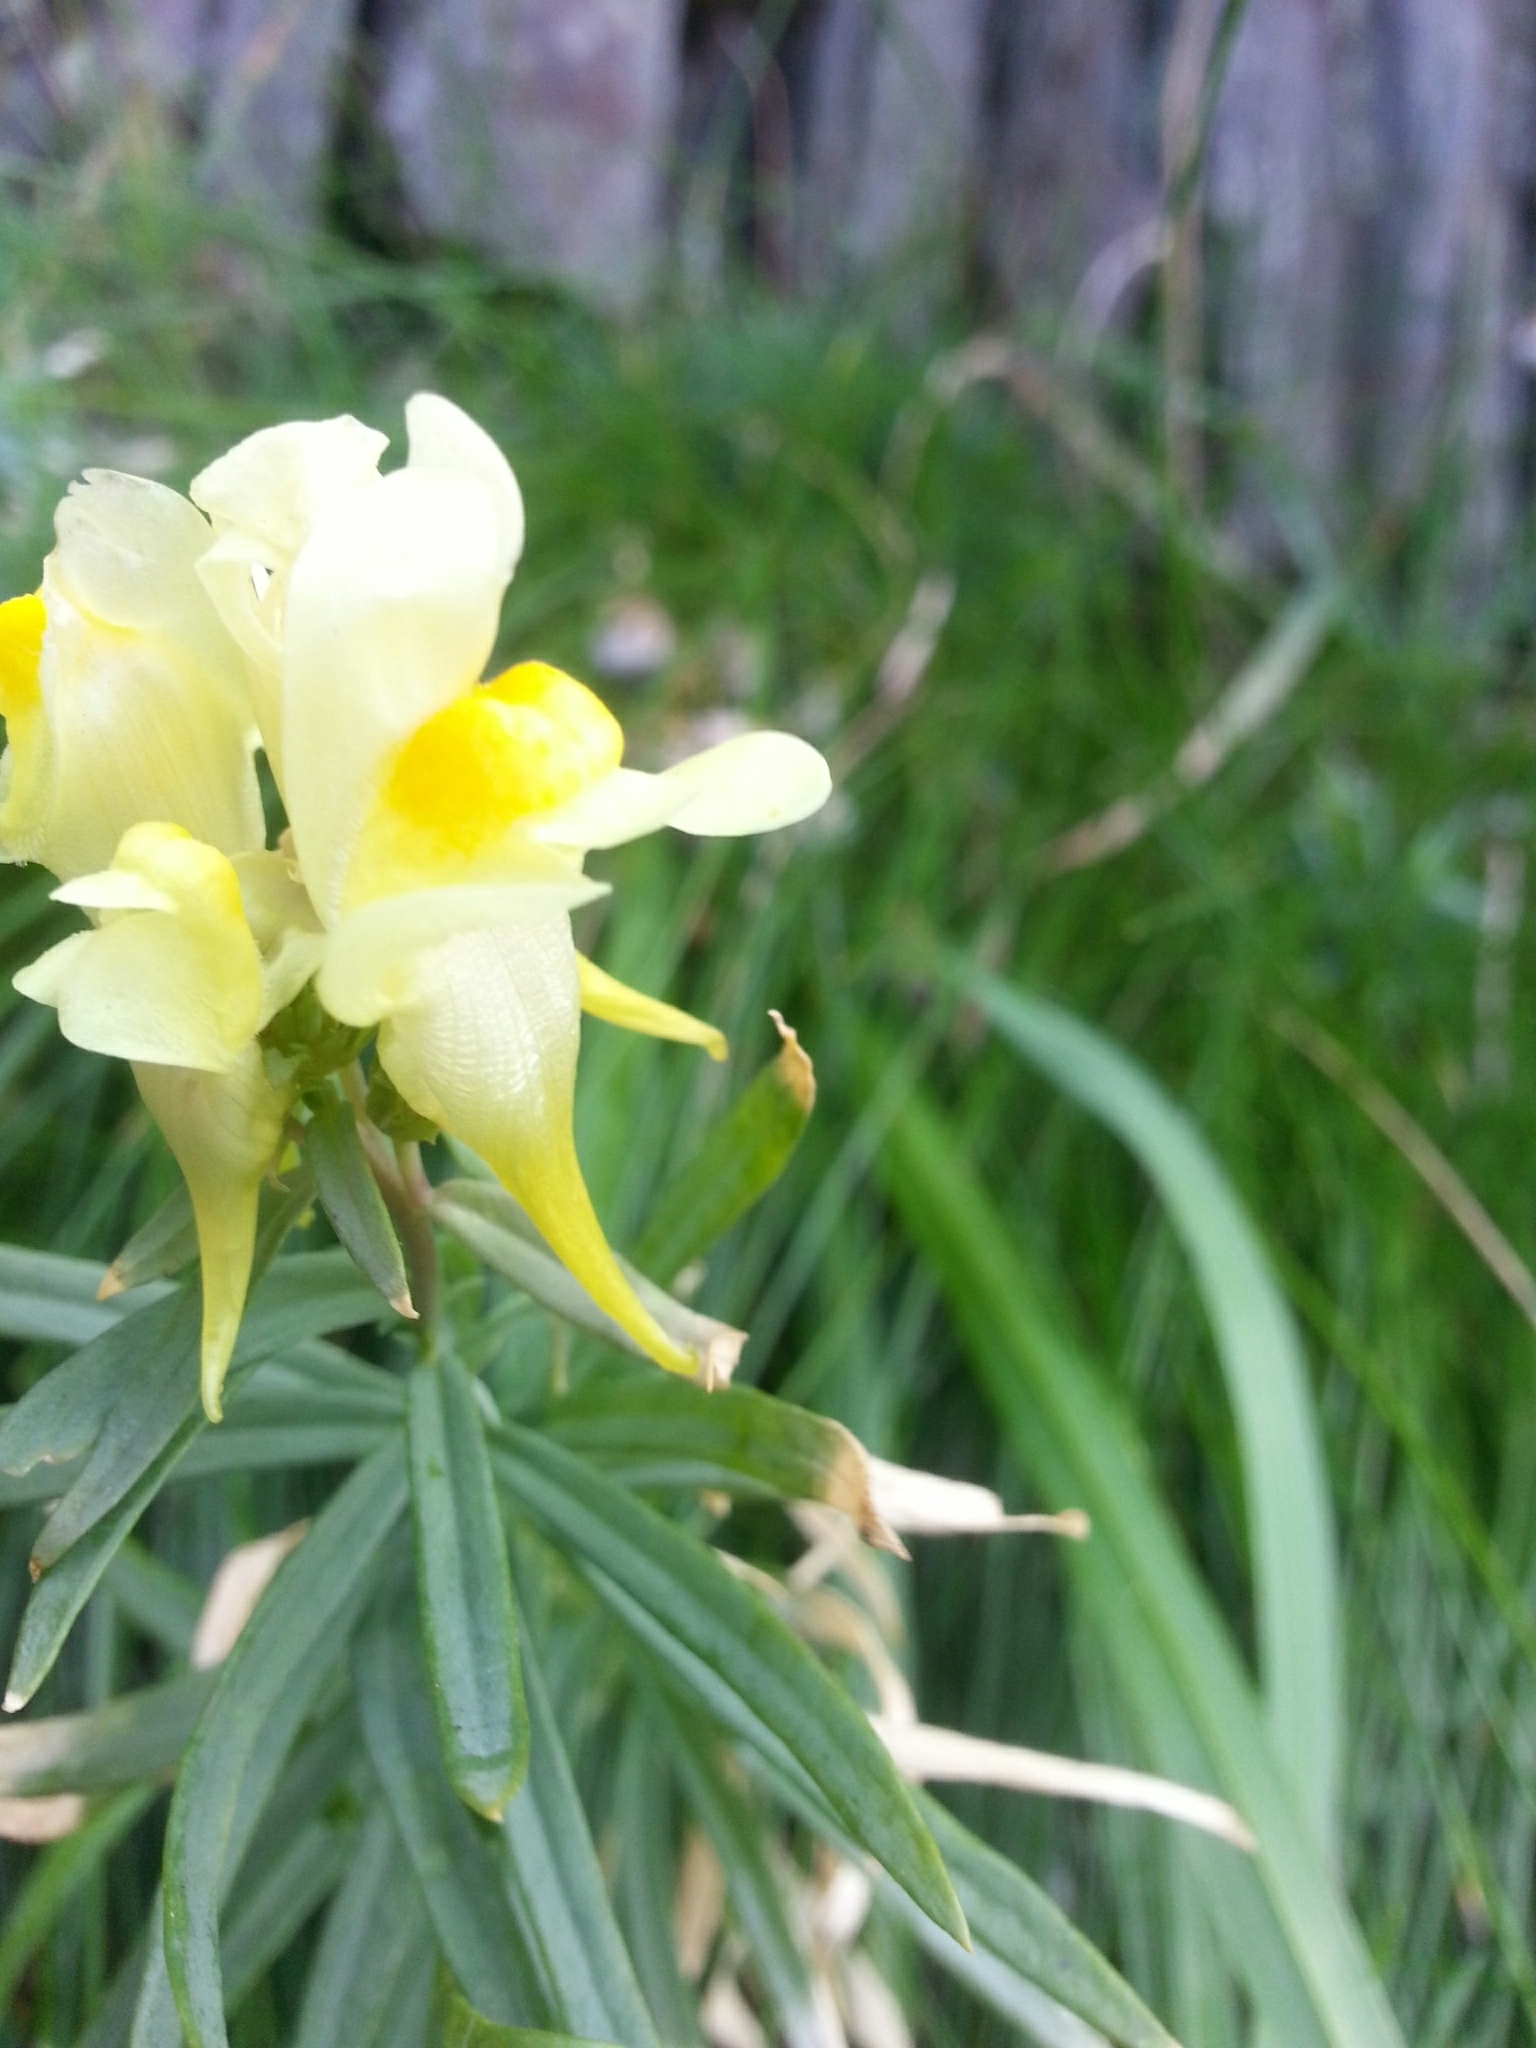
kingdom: Plantae
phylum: Tracheophyta
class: Magnoliopsida
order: Lamiales
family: Plantaginaceae
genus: Linaria
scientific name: Linaria vulgaris
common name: Butter and eggs
